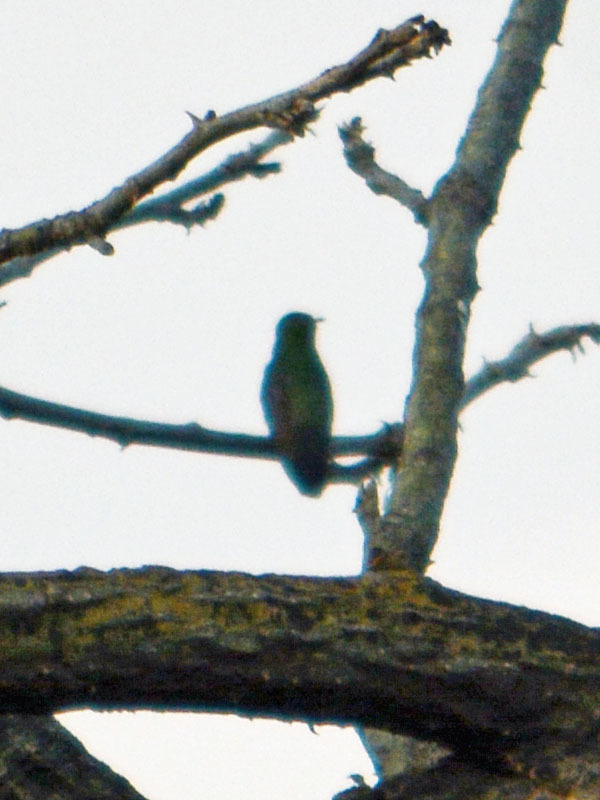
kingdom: Animalia
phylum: Chordata
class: Aves
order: Apodiformes
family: Trochilidae
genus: Saucerottia
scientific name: Saucerottia beryllina
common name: Berylline hummingbird
